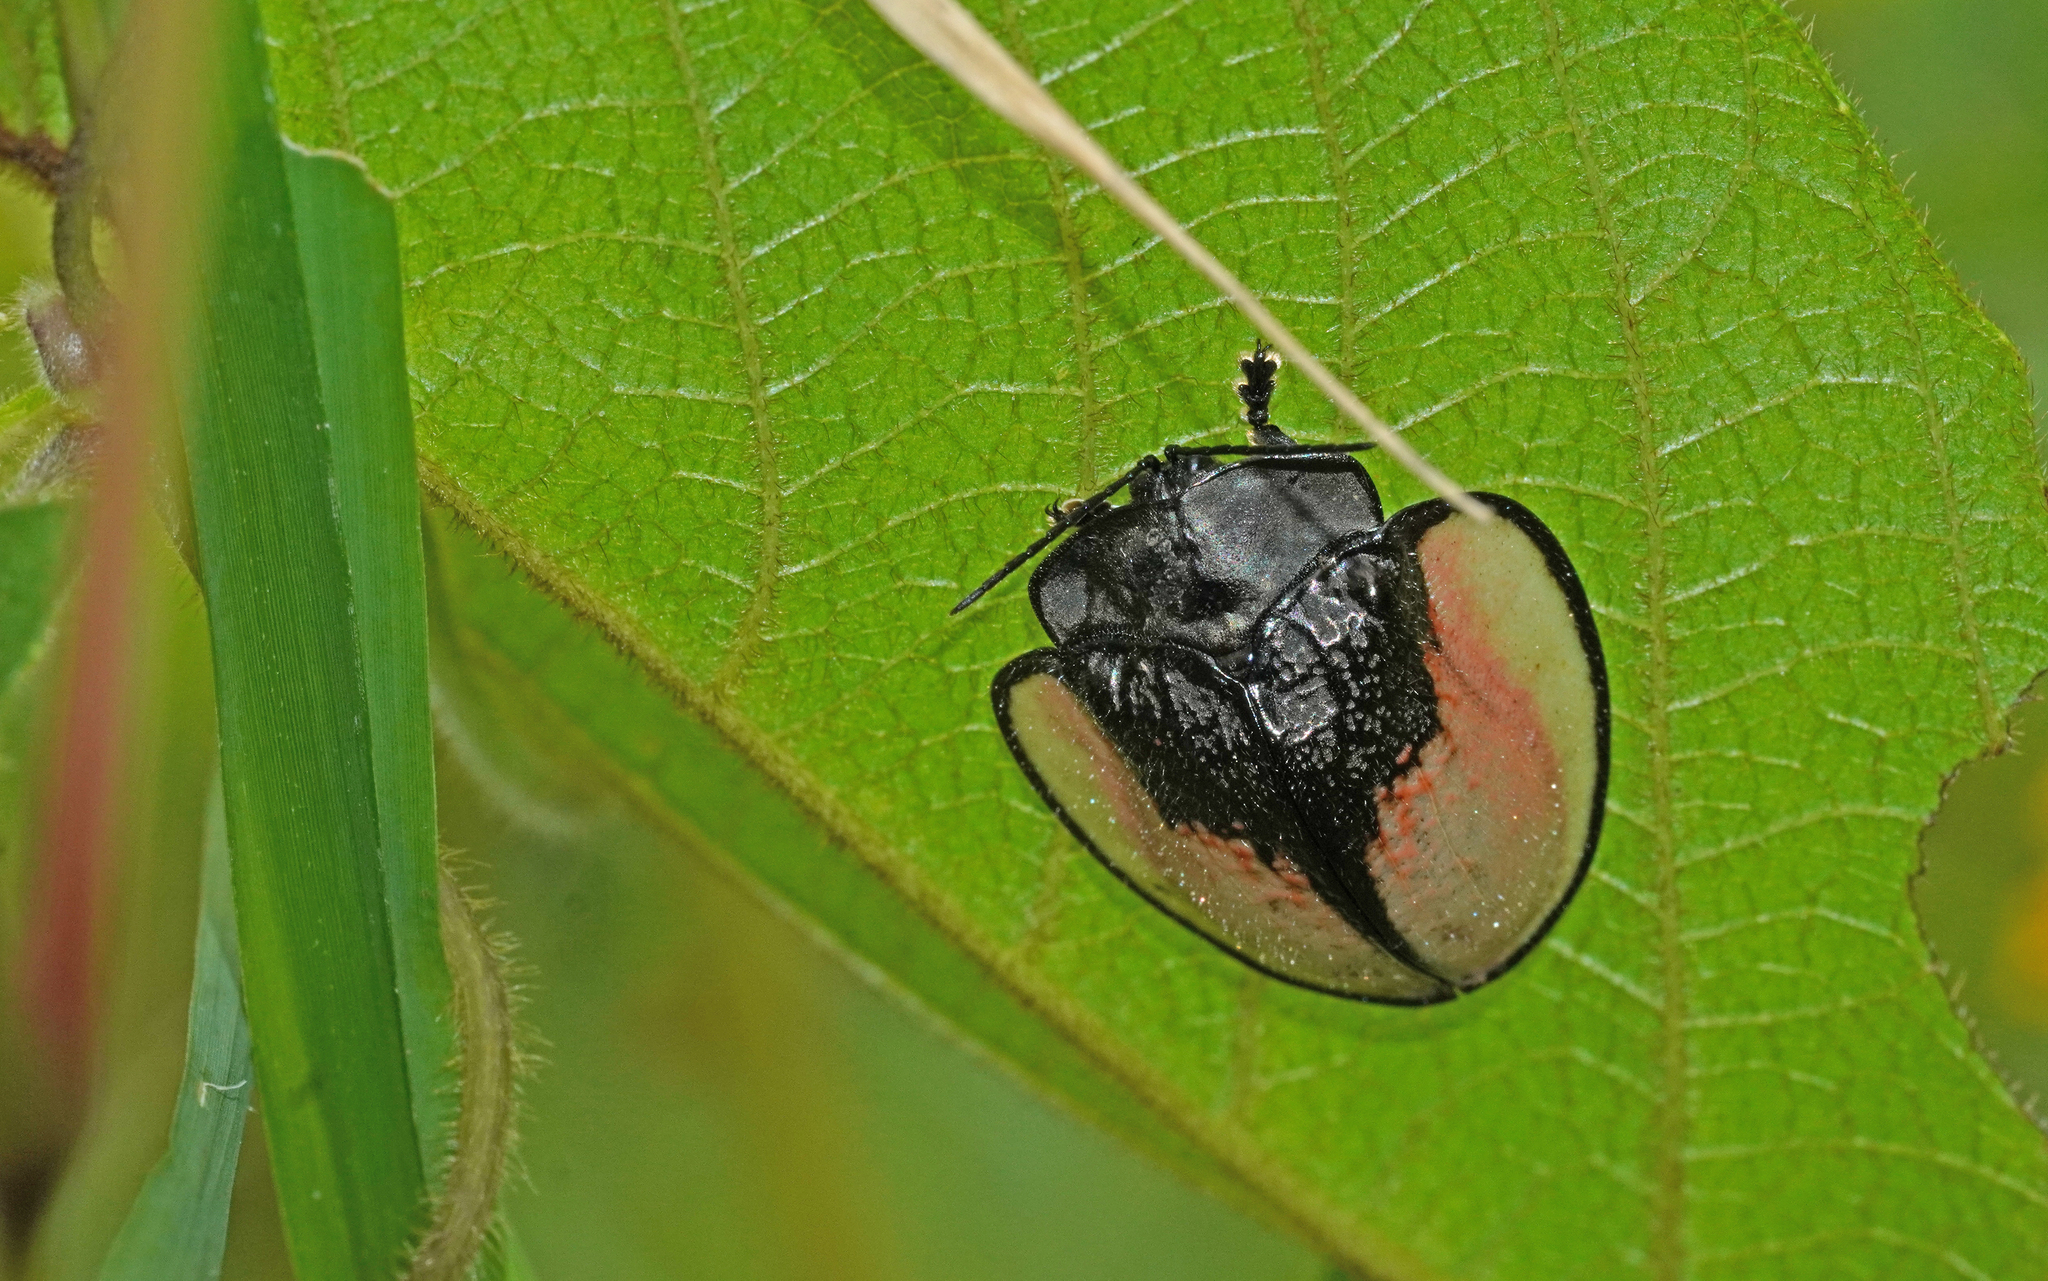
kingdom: Animalia
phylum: Arthropoda
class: Insecta
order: Coleoptera
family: Chrysomelidae
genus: Goniochenia
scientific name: Goniochenia elocata
